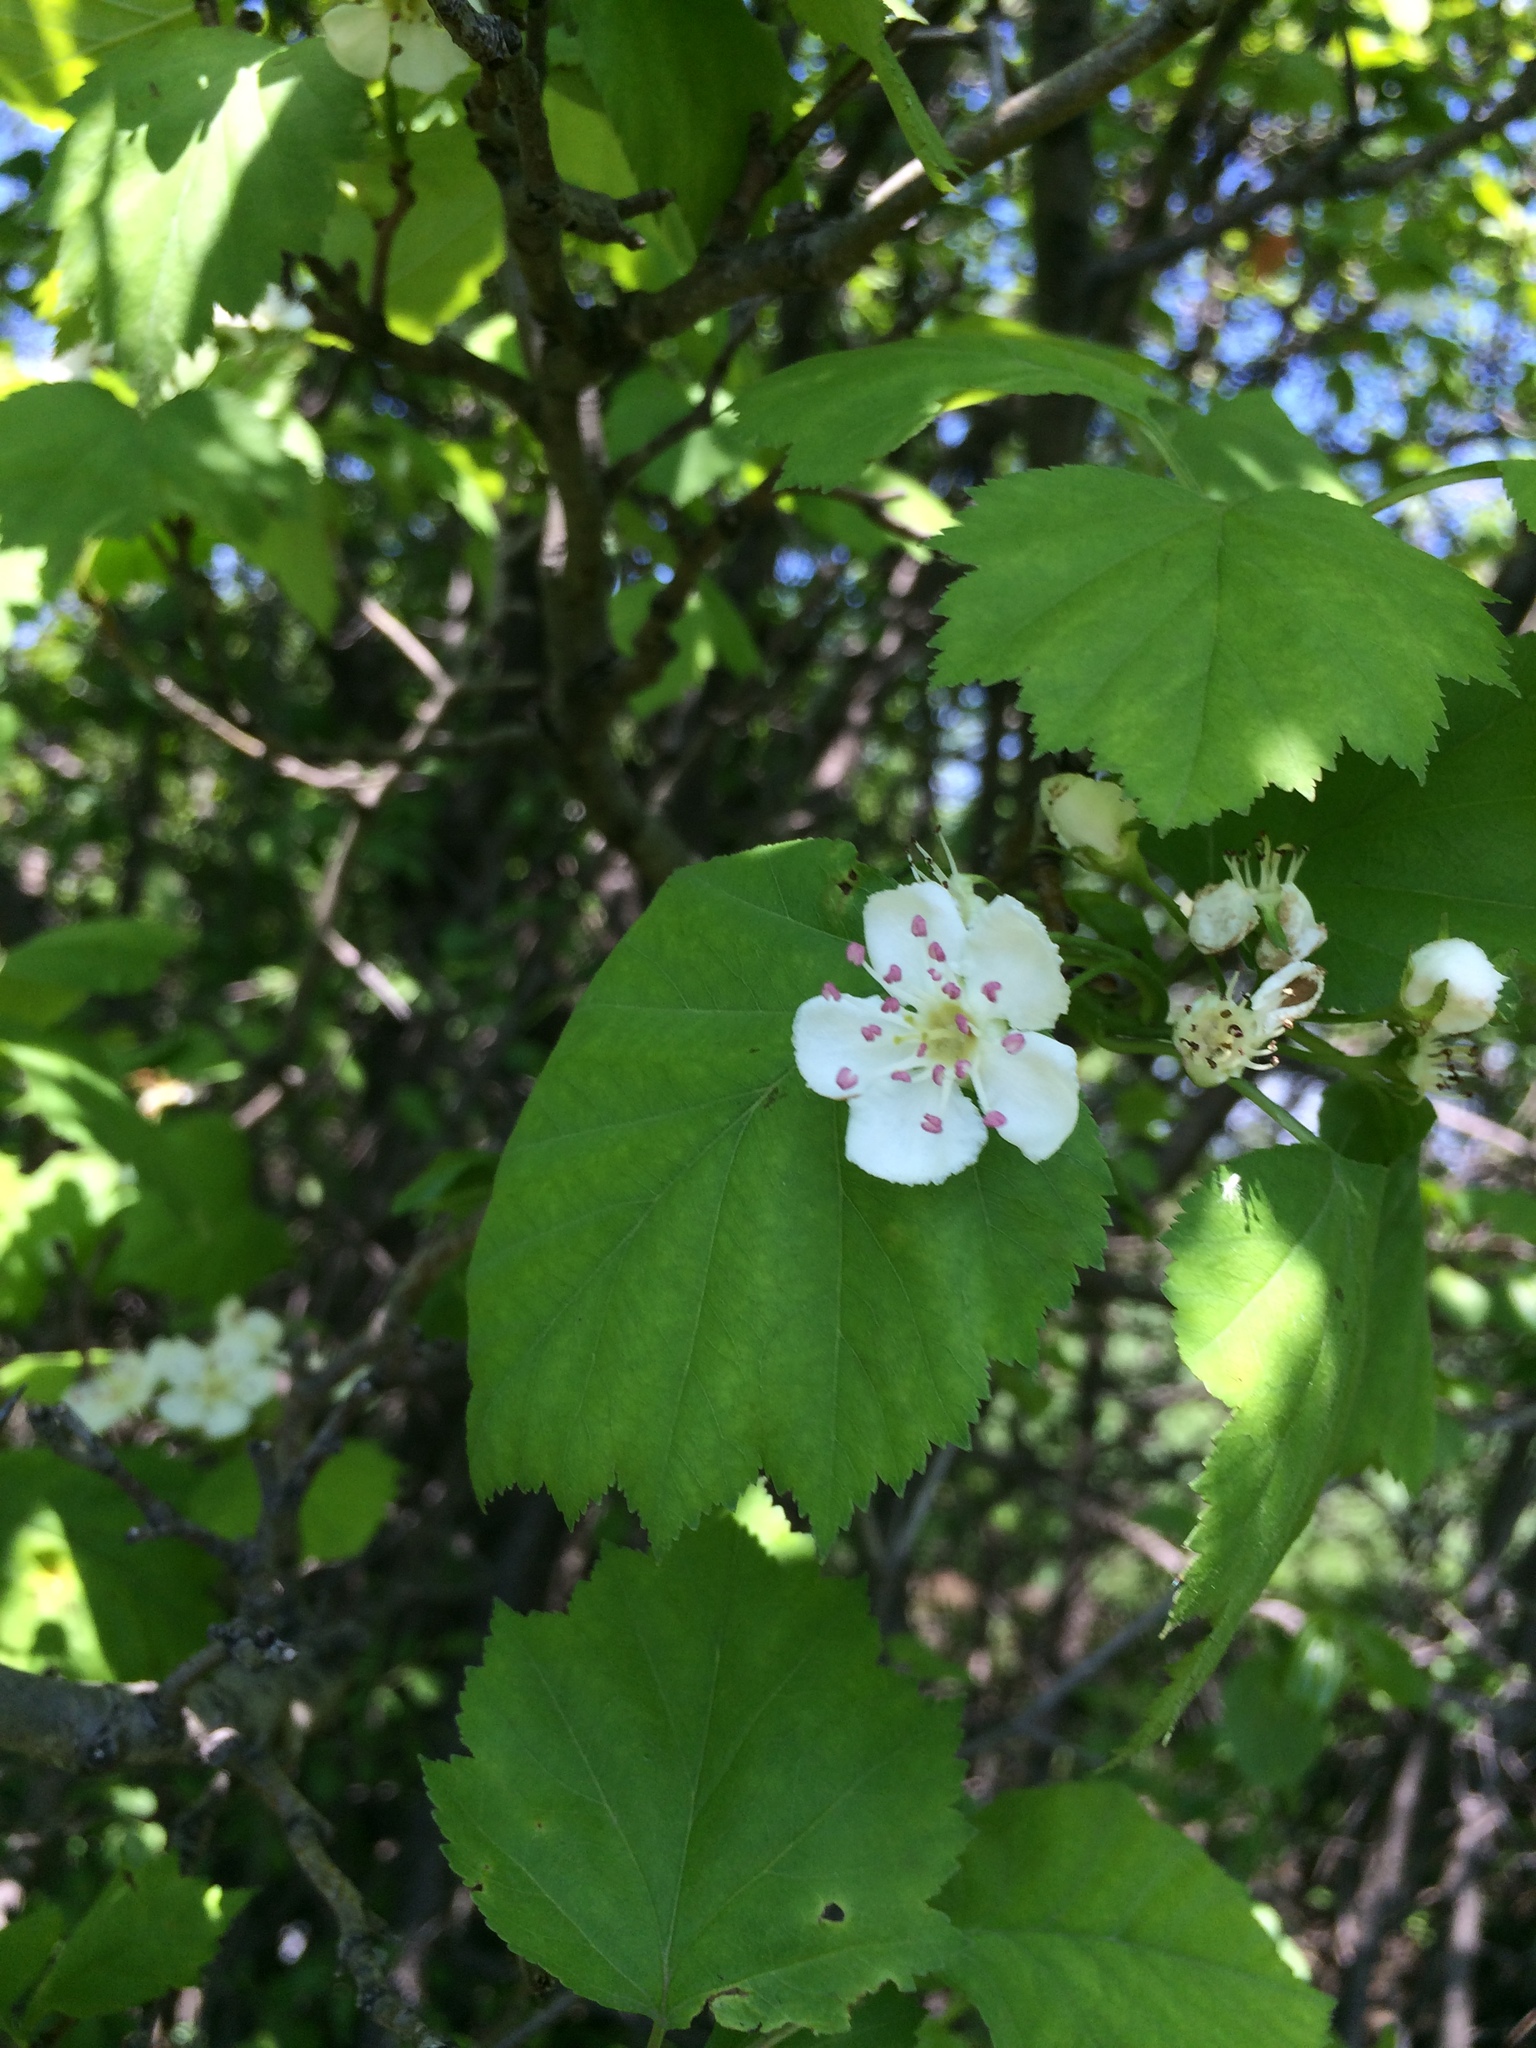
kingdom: Plantae
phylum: Tracheophyta
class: Magnoliopsida
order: Rosales
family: Rosaceae
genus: Crataegus
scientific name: Crataegus schuettei
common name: Schuette's hawthorn
